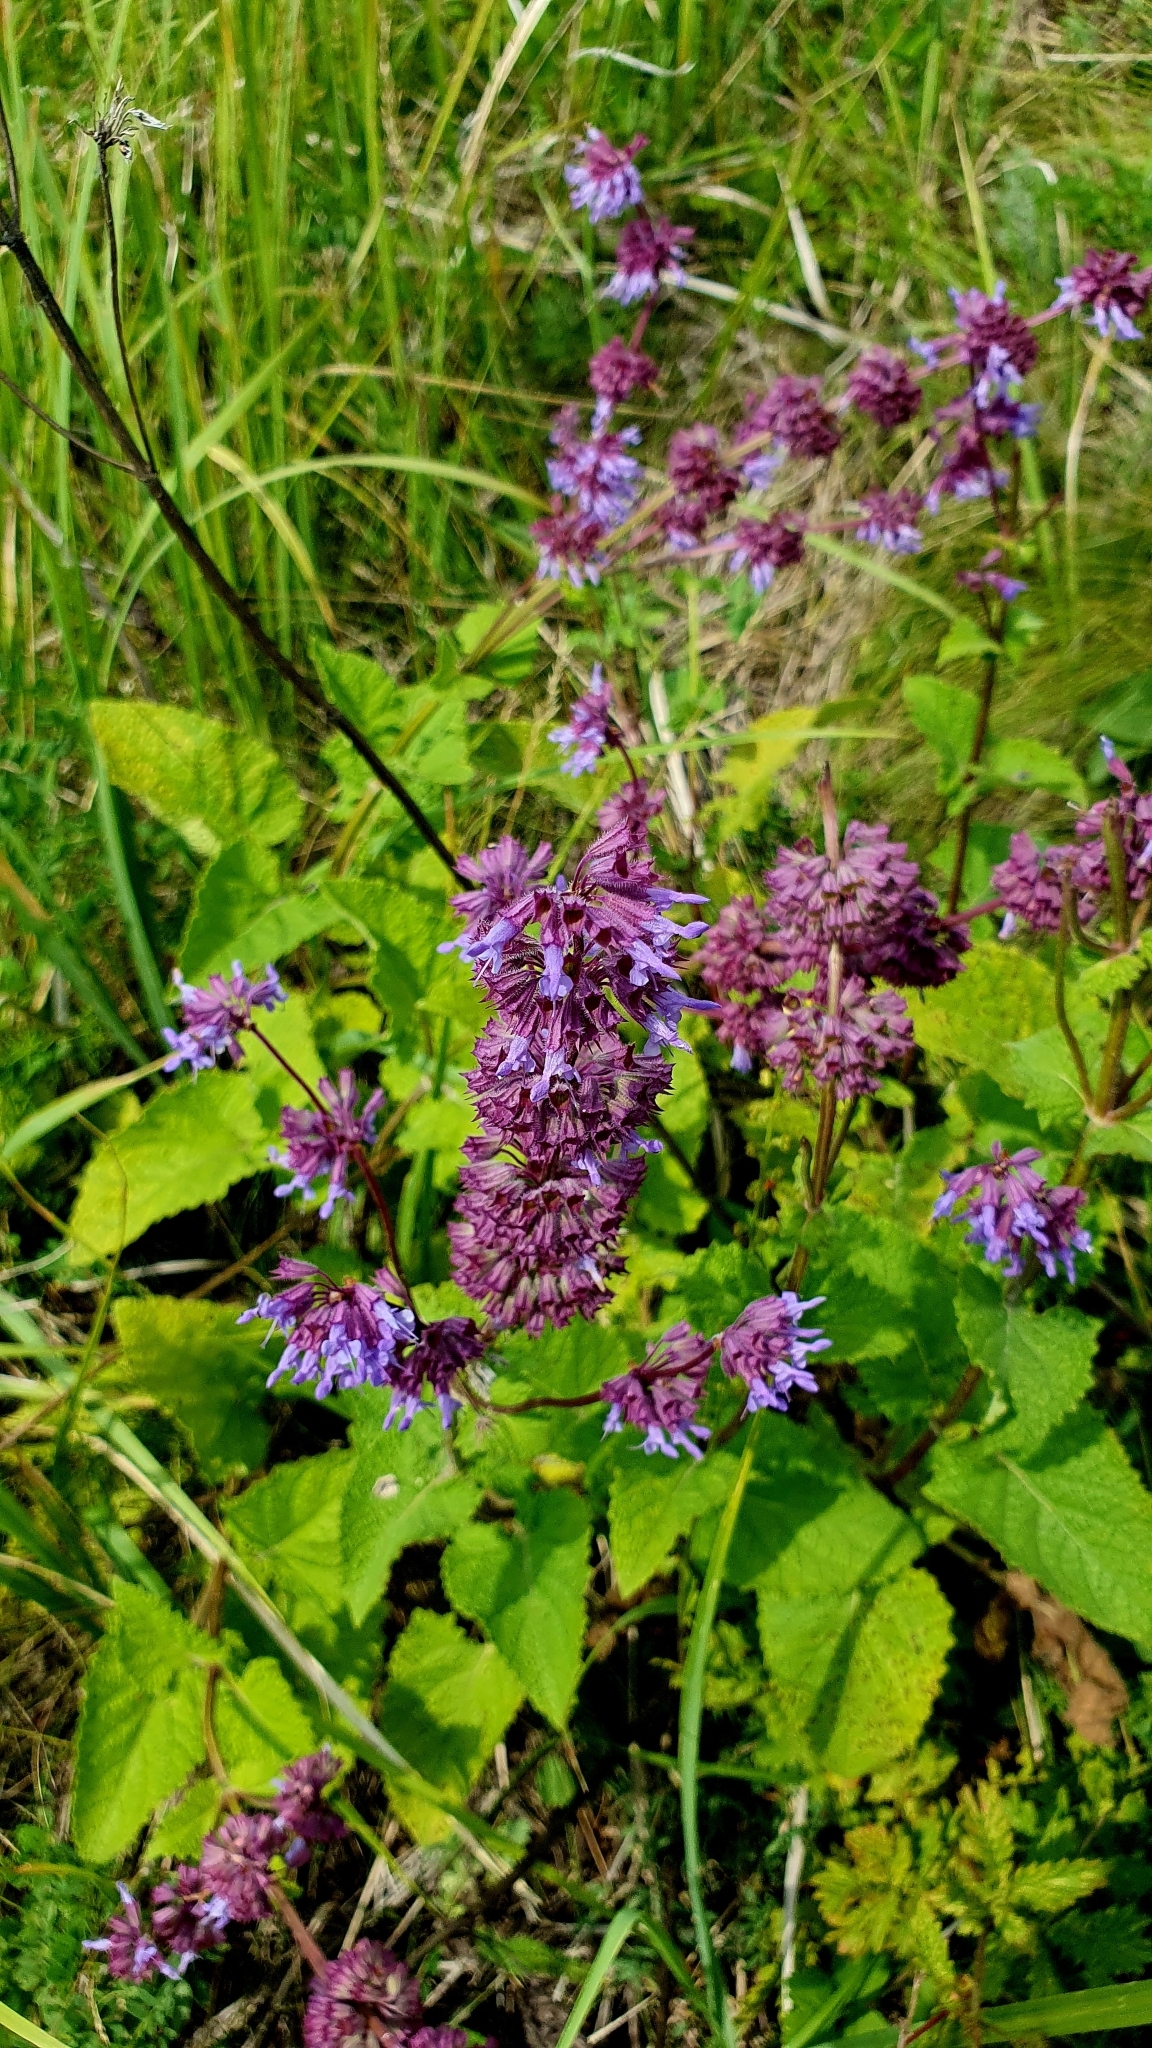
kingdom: Plantae
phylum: Tracheophyta
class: Magnoliopsida
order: Lamiales
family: Lamiaceae
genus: Salvia
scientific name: Salvia verticillata
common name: Whorled clary
